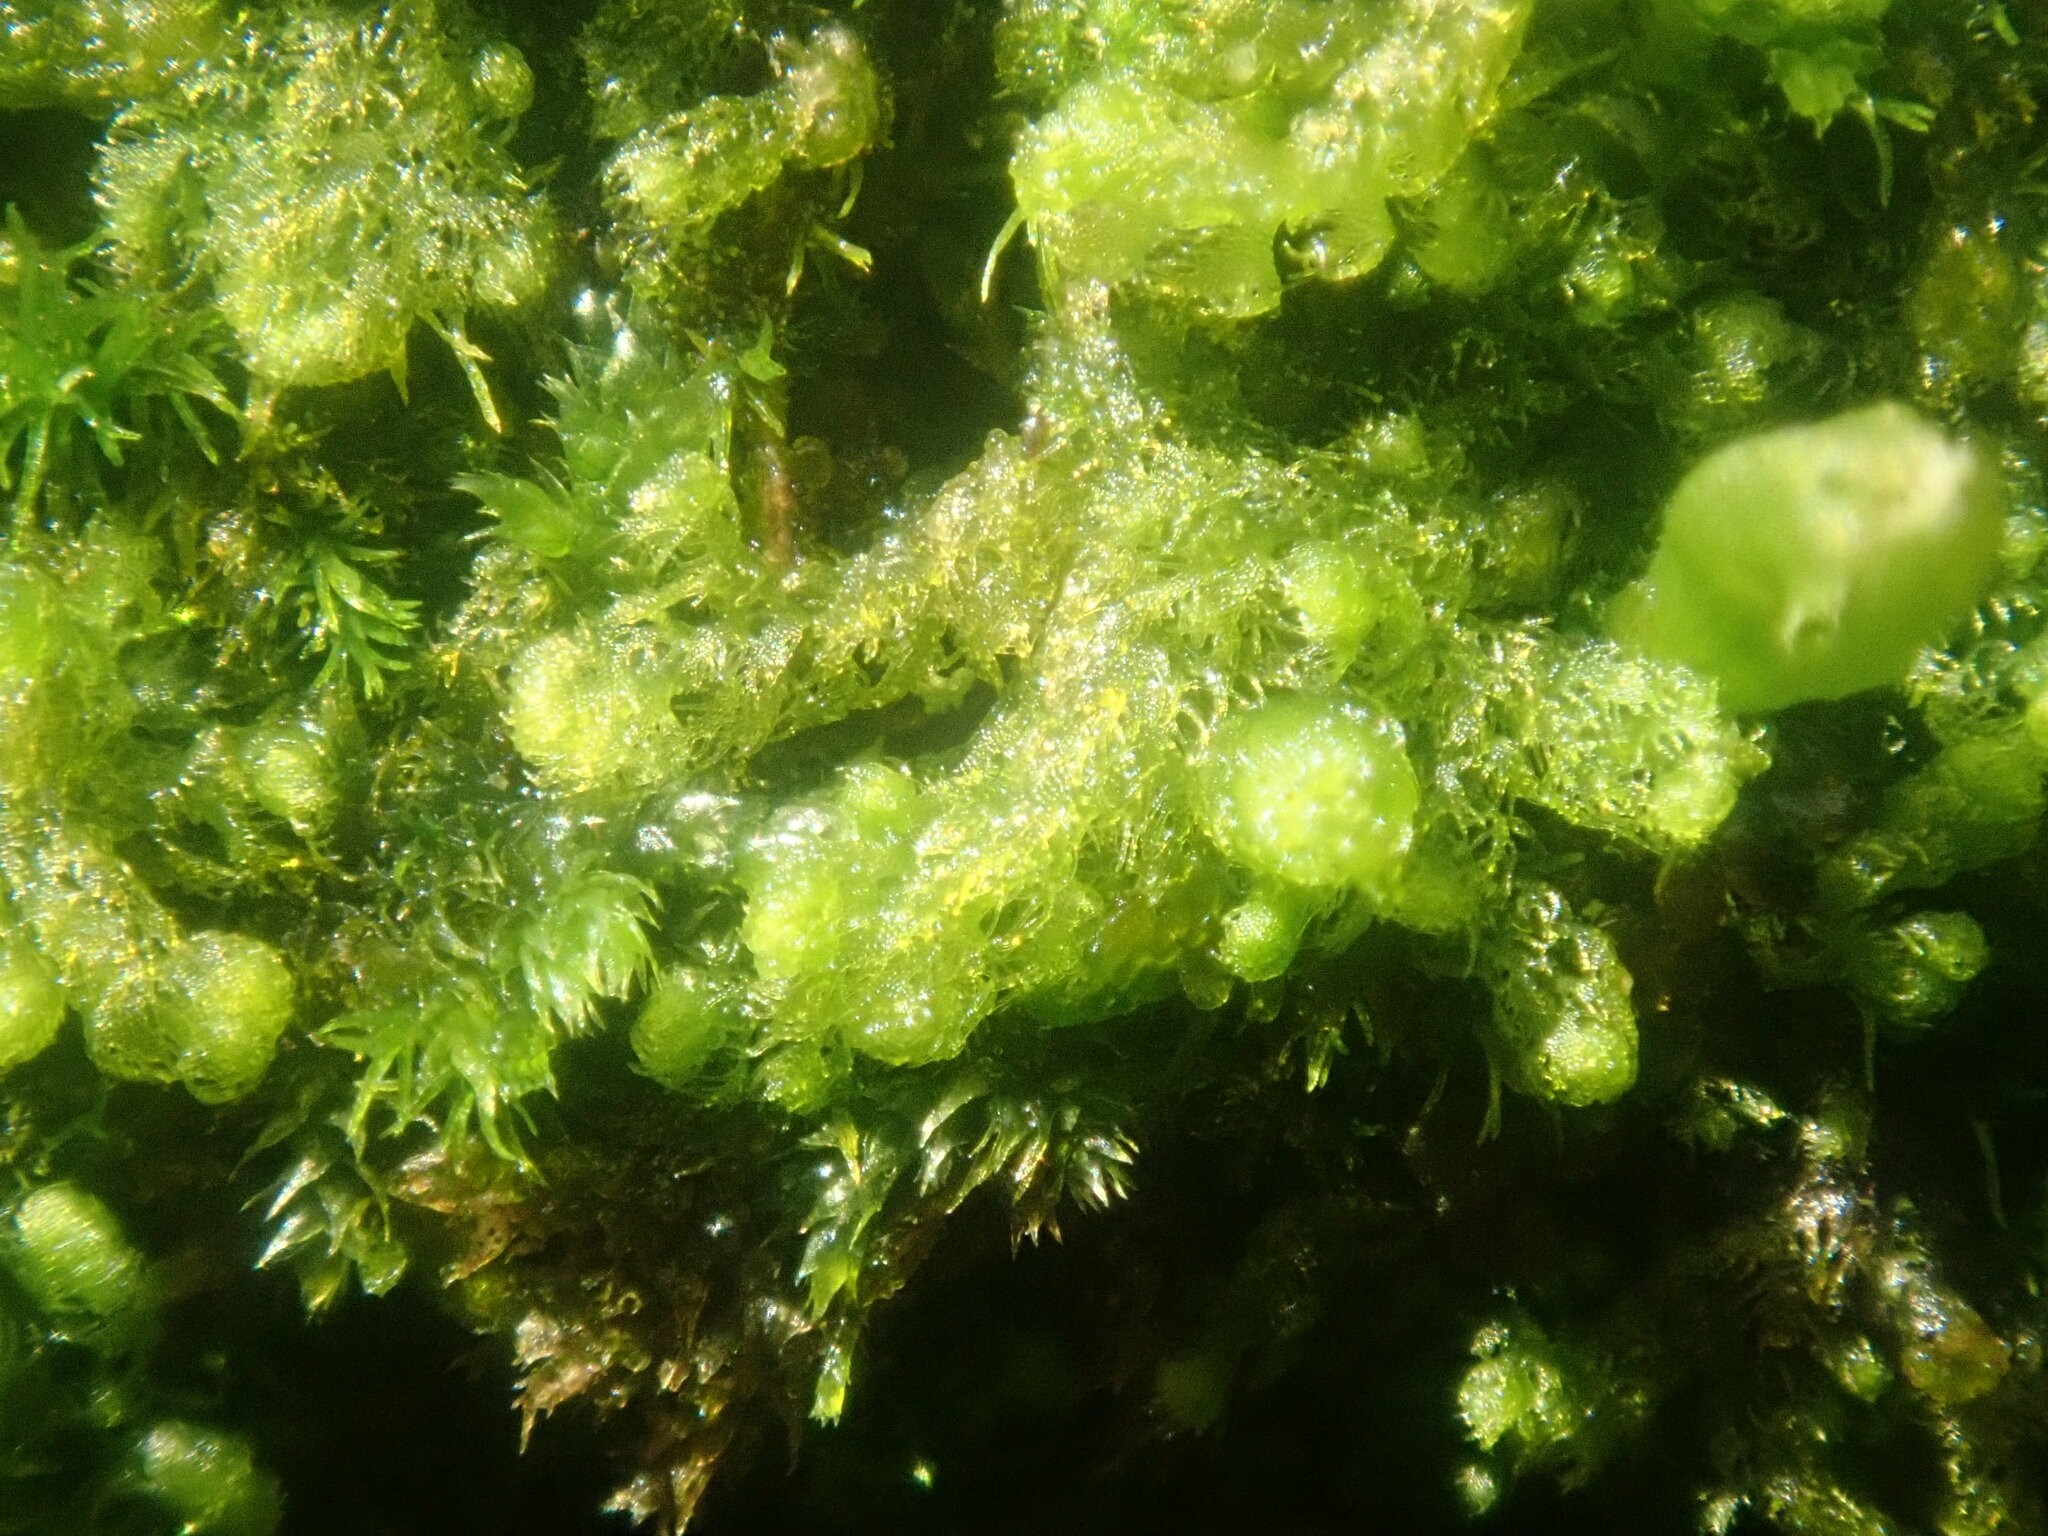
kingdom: Plantae
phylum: Marchantiophyta
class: Jungermanniopsida
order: Ptilidiales
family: Ptilidiaceae
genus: Ptilidium
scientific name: Ptilidium pulcherrimum
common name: Tree fringewort
